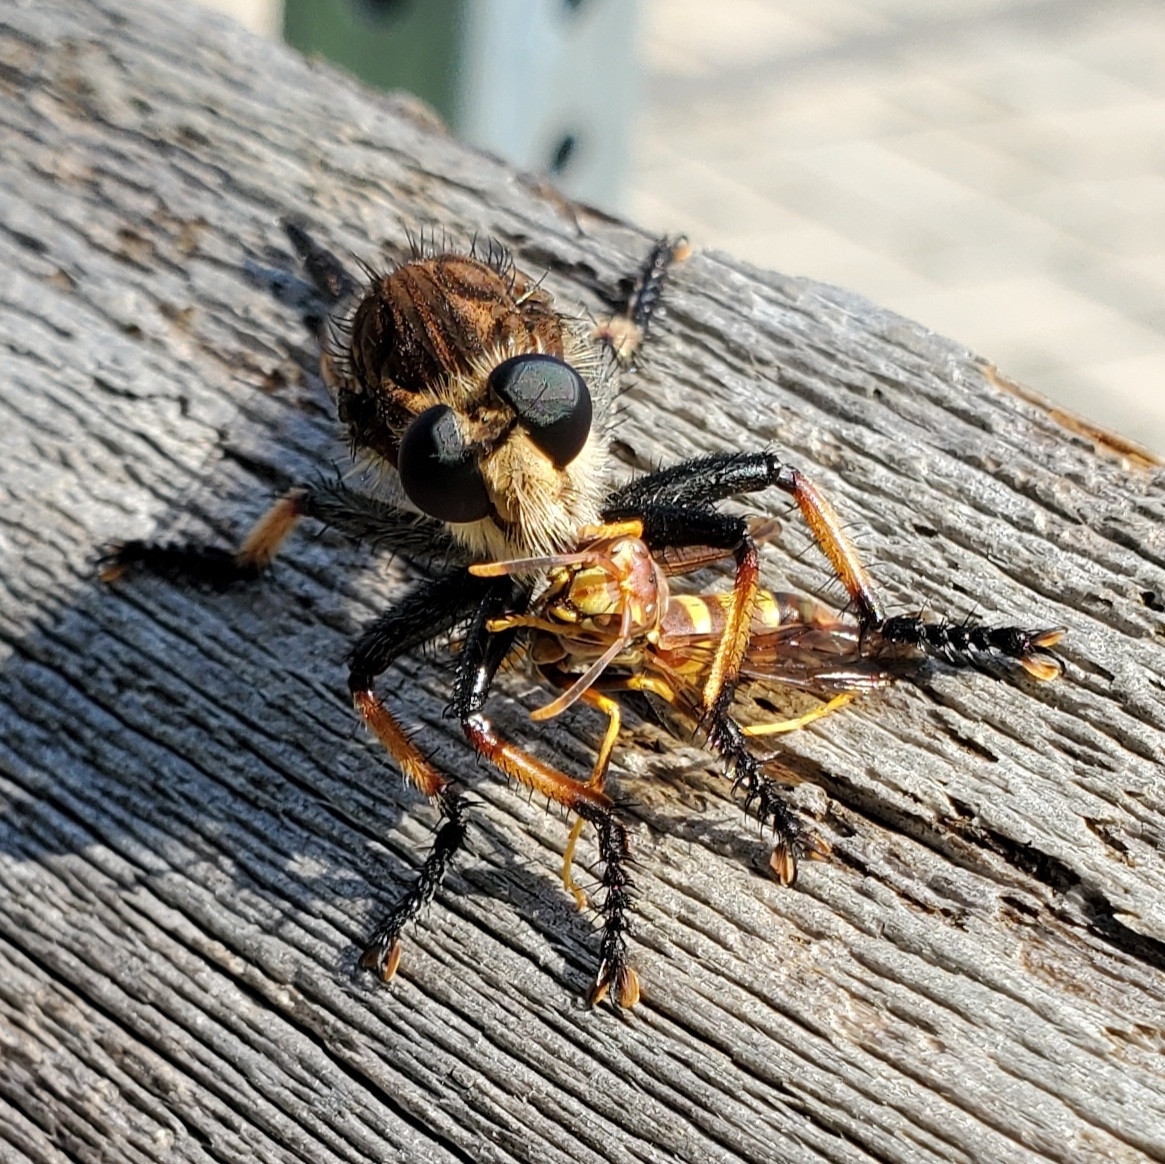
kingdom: Animalia
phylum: Arthropoda
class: Insecta
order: Diptera
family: Asilidae
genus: Promachus
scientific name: Promachus rufipes
